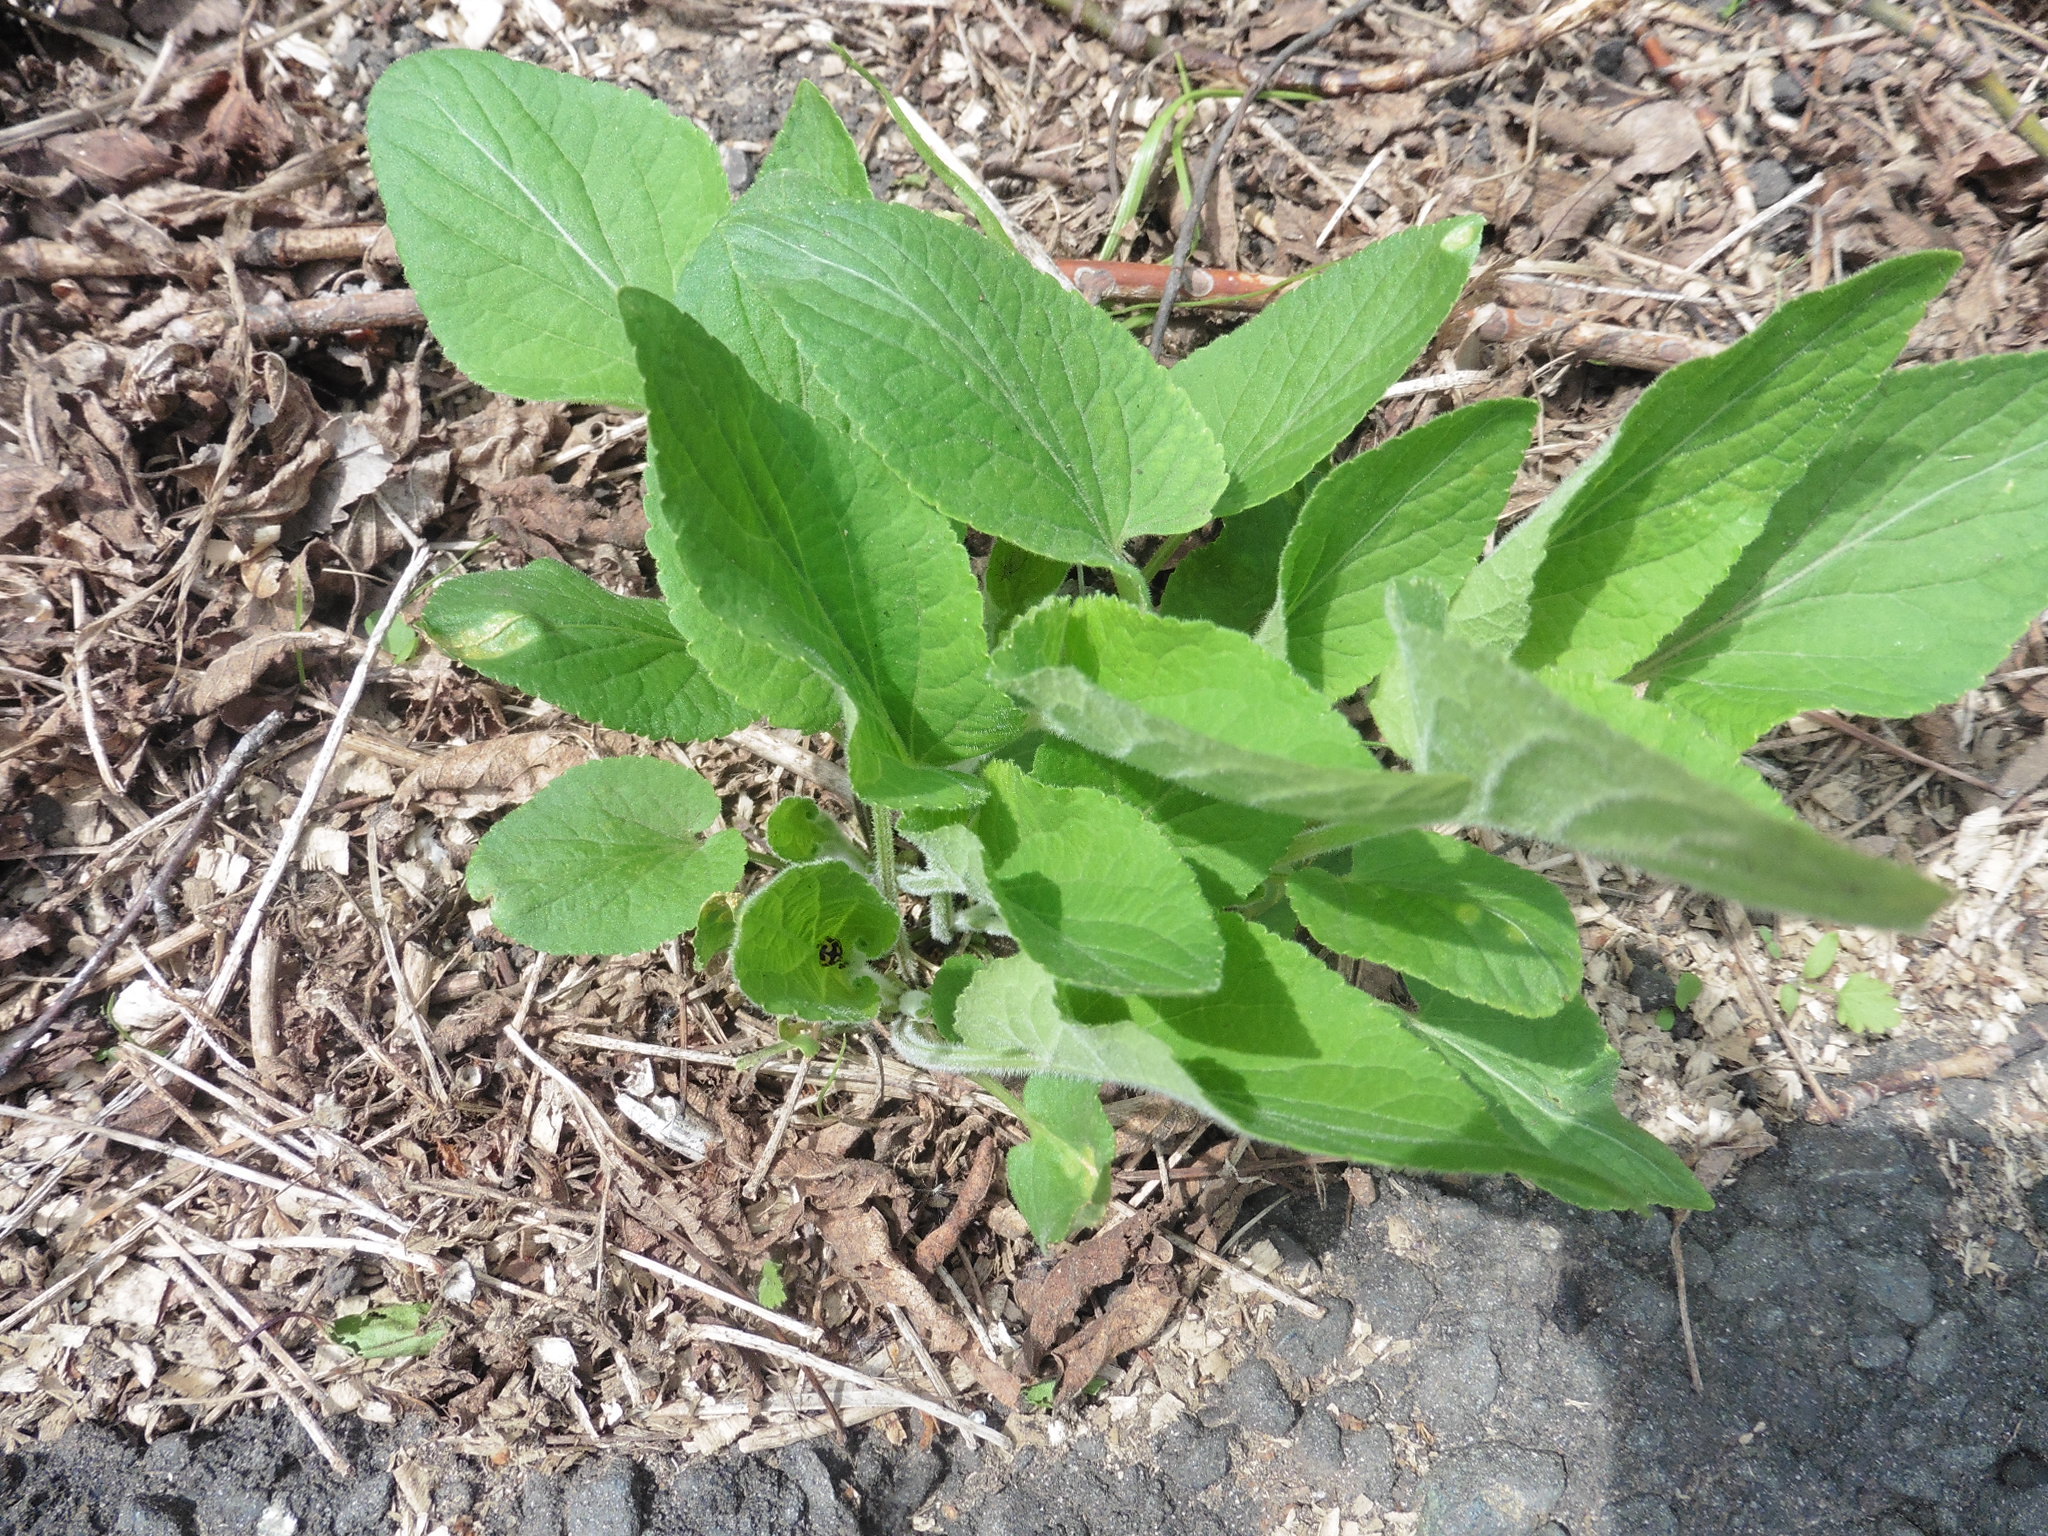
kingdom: Plantae
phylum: Tracheophyta
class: Magnoliopsida
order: Malpighiales
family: Violaceae
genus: Viola
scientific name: Viola hirta
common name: Hairy violet
